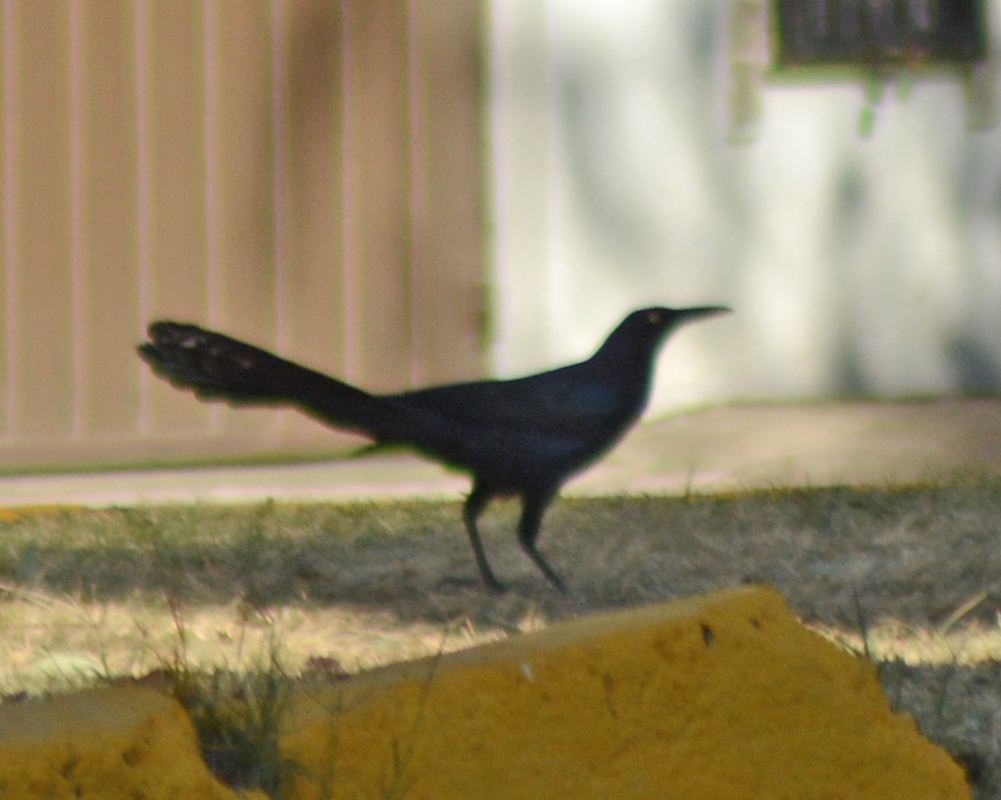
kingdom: Animalia
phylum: Chordata
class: Aves
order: Passeriformes
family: Icteridae
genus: Quiscalus
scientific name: Quiscalus mexicanus
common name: Great-tailed grackle
